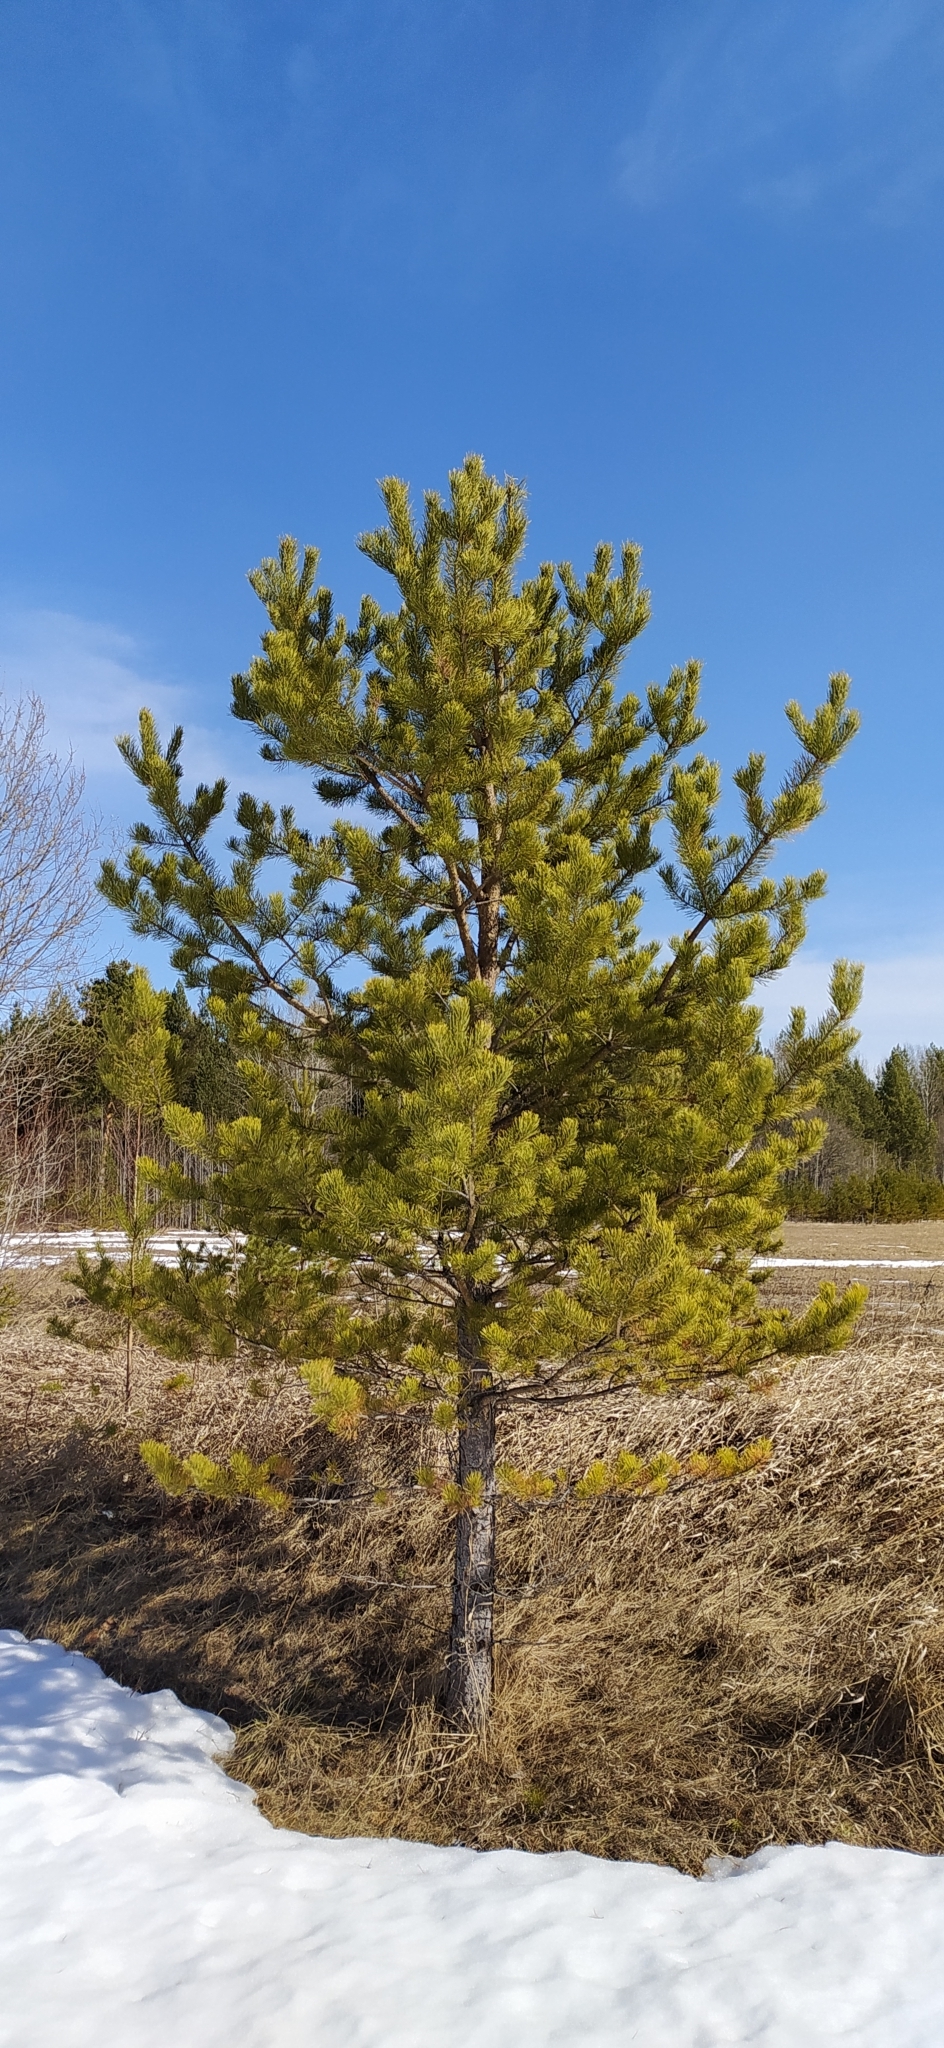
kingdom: Plantae
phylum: Tracheophyta
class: Pinopsida
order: Pinales
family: Pinaceae
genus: Pinus
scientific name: Pinus sylvestris
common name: Scots pine
